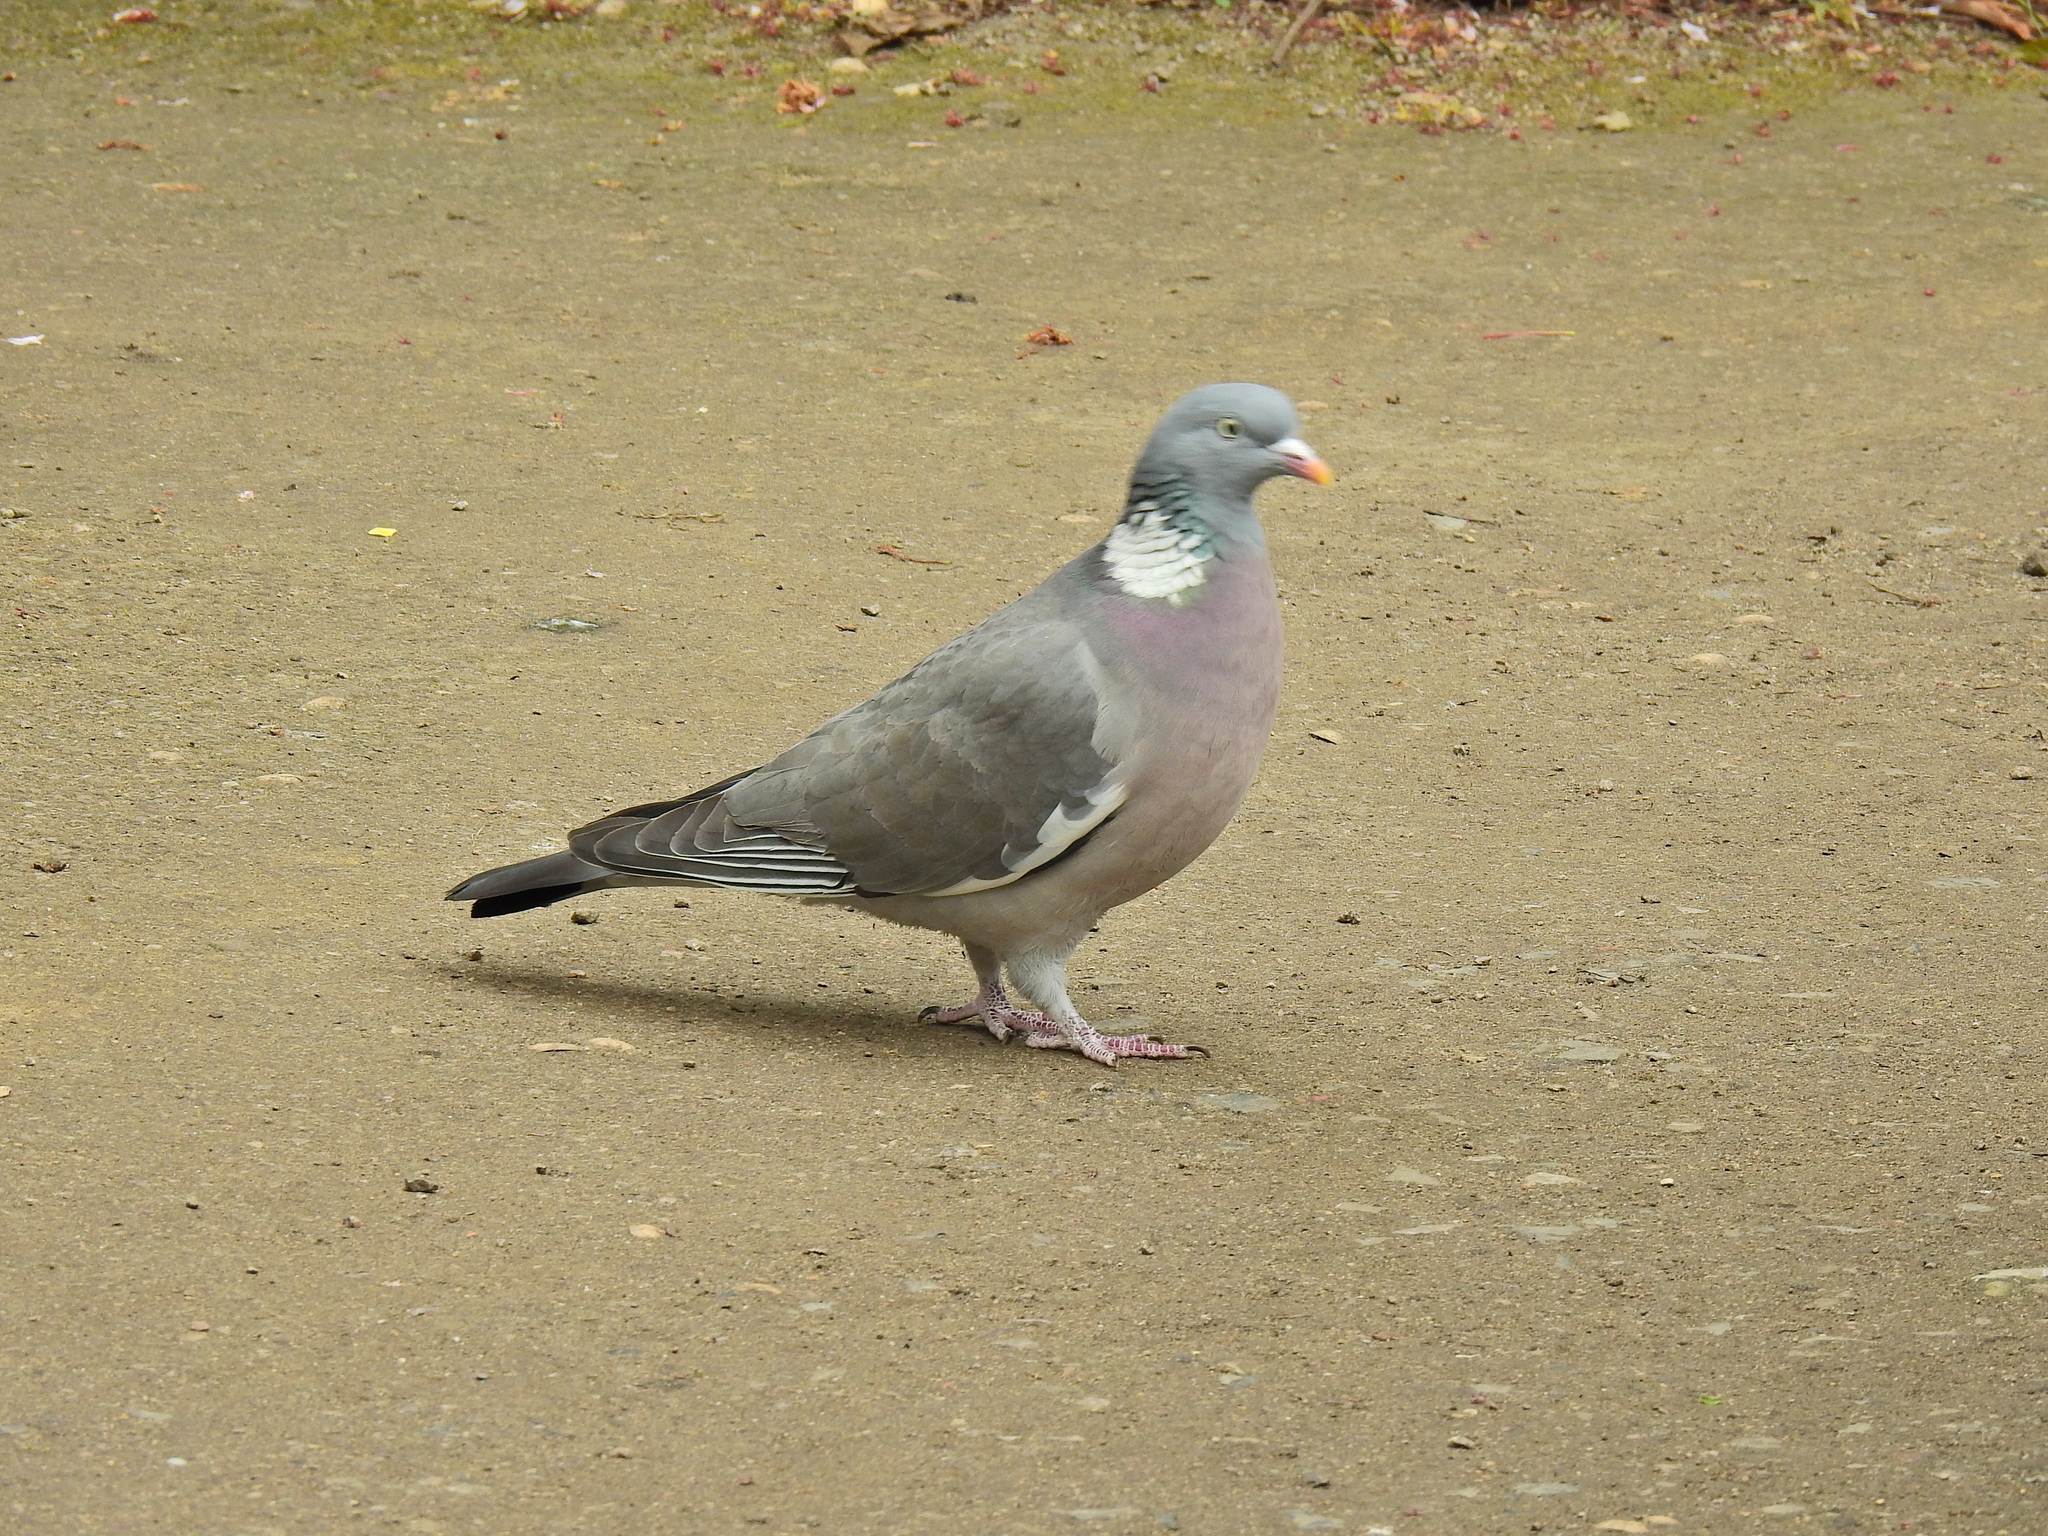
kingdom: Animalia
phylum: Chordata
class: Aves
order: Columbiformes
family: Columbidae
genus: Columba
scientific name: Columba palumbus
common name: Common wood pigeon
